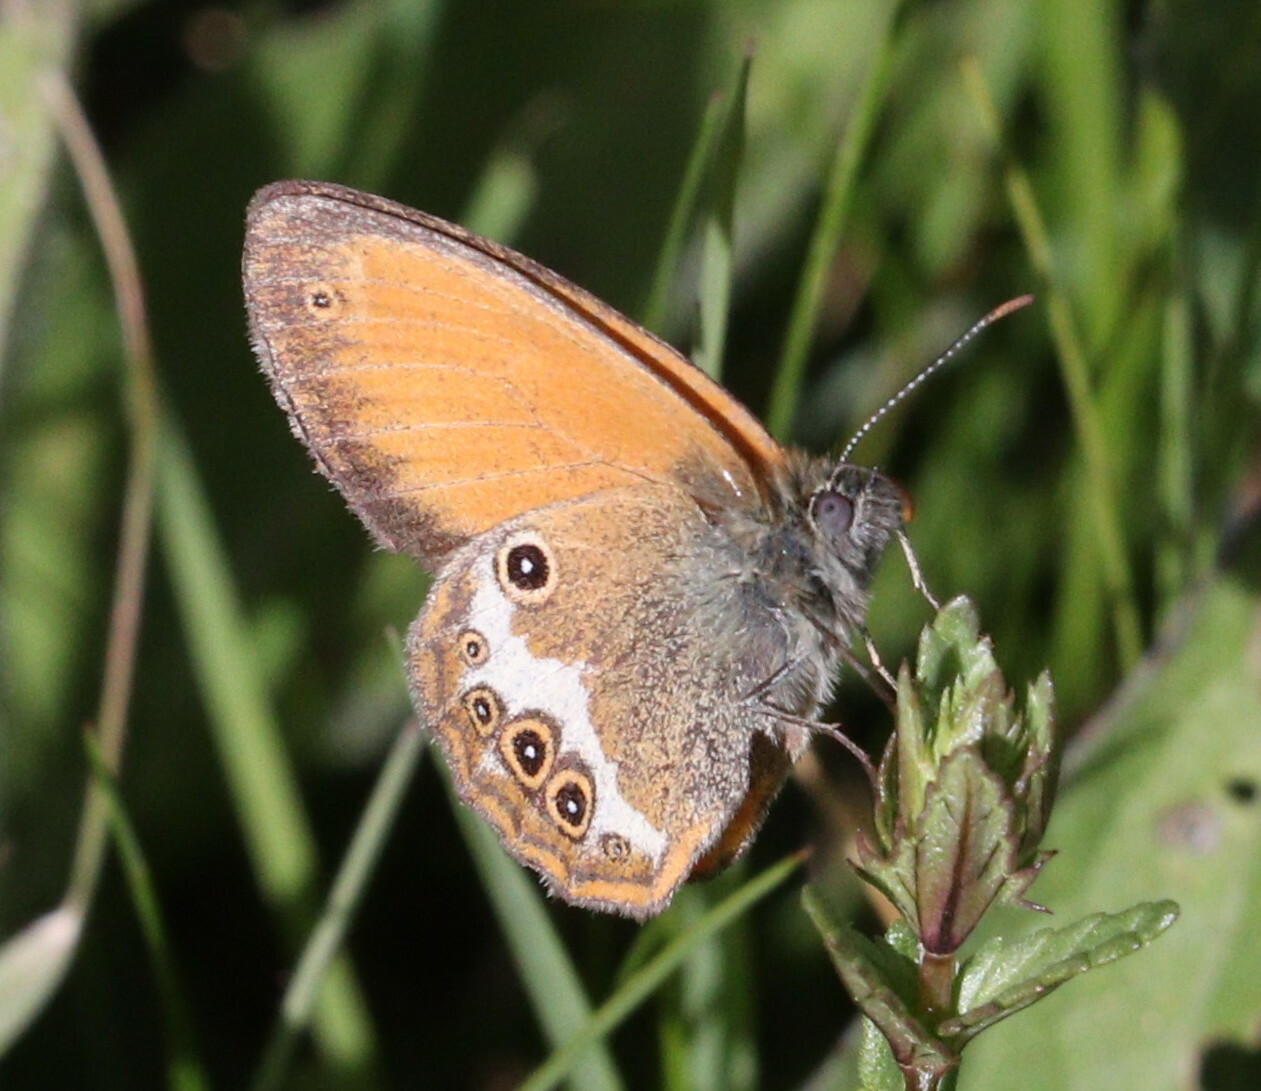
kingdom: Animalia
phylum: Arthropoda
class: Insecta
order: Lepidoptera
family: Nymphalidae
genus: Coenonympha
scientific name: Coenonympha arcania
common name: Pearly heath
